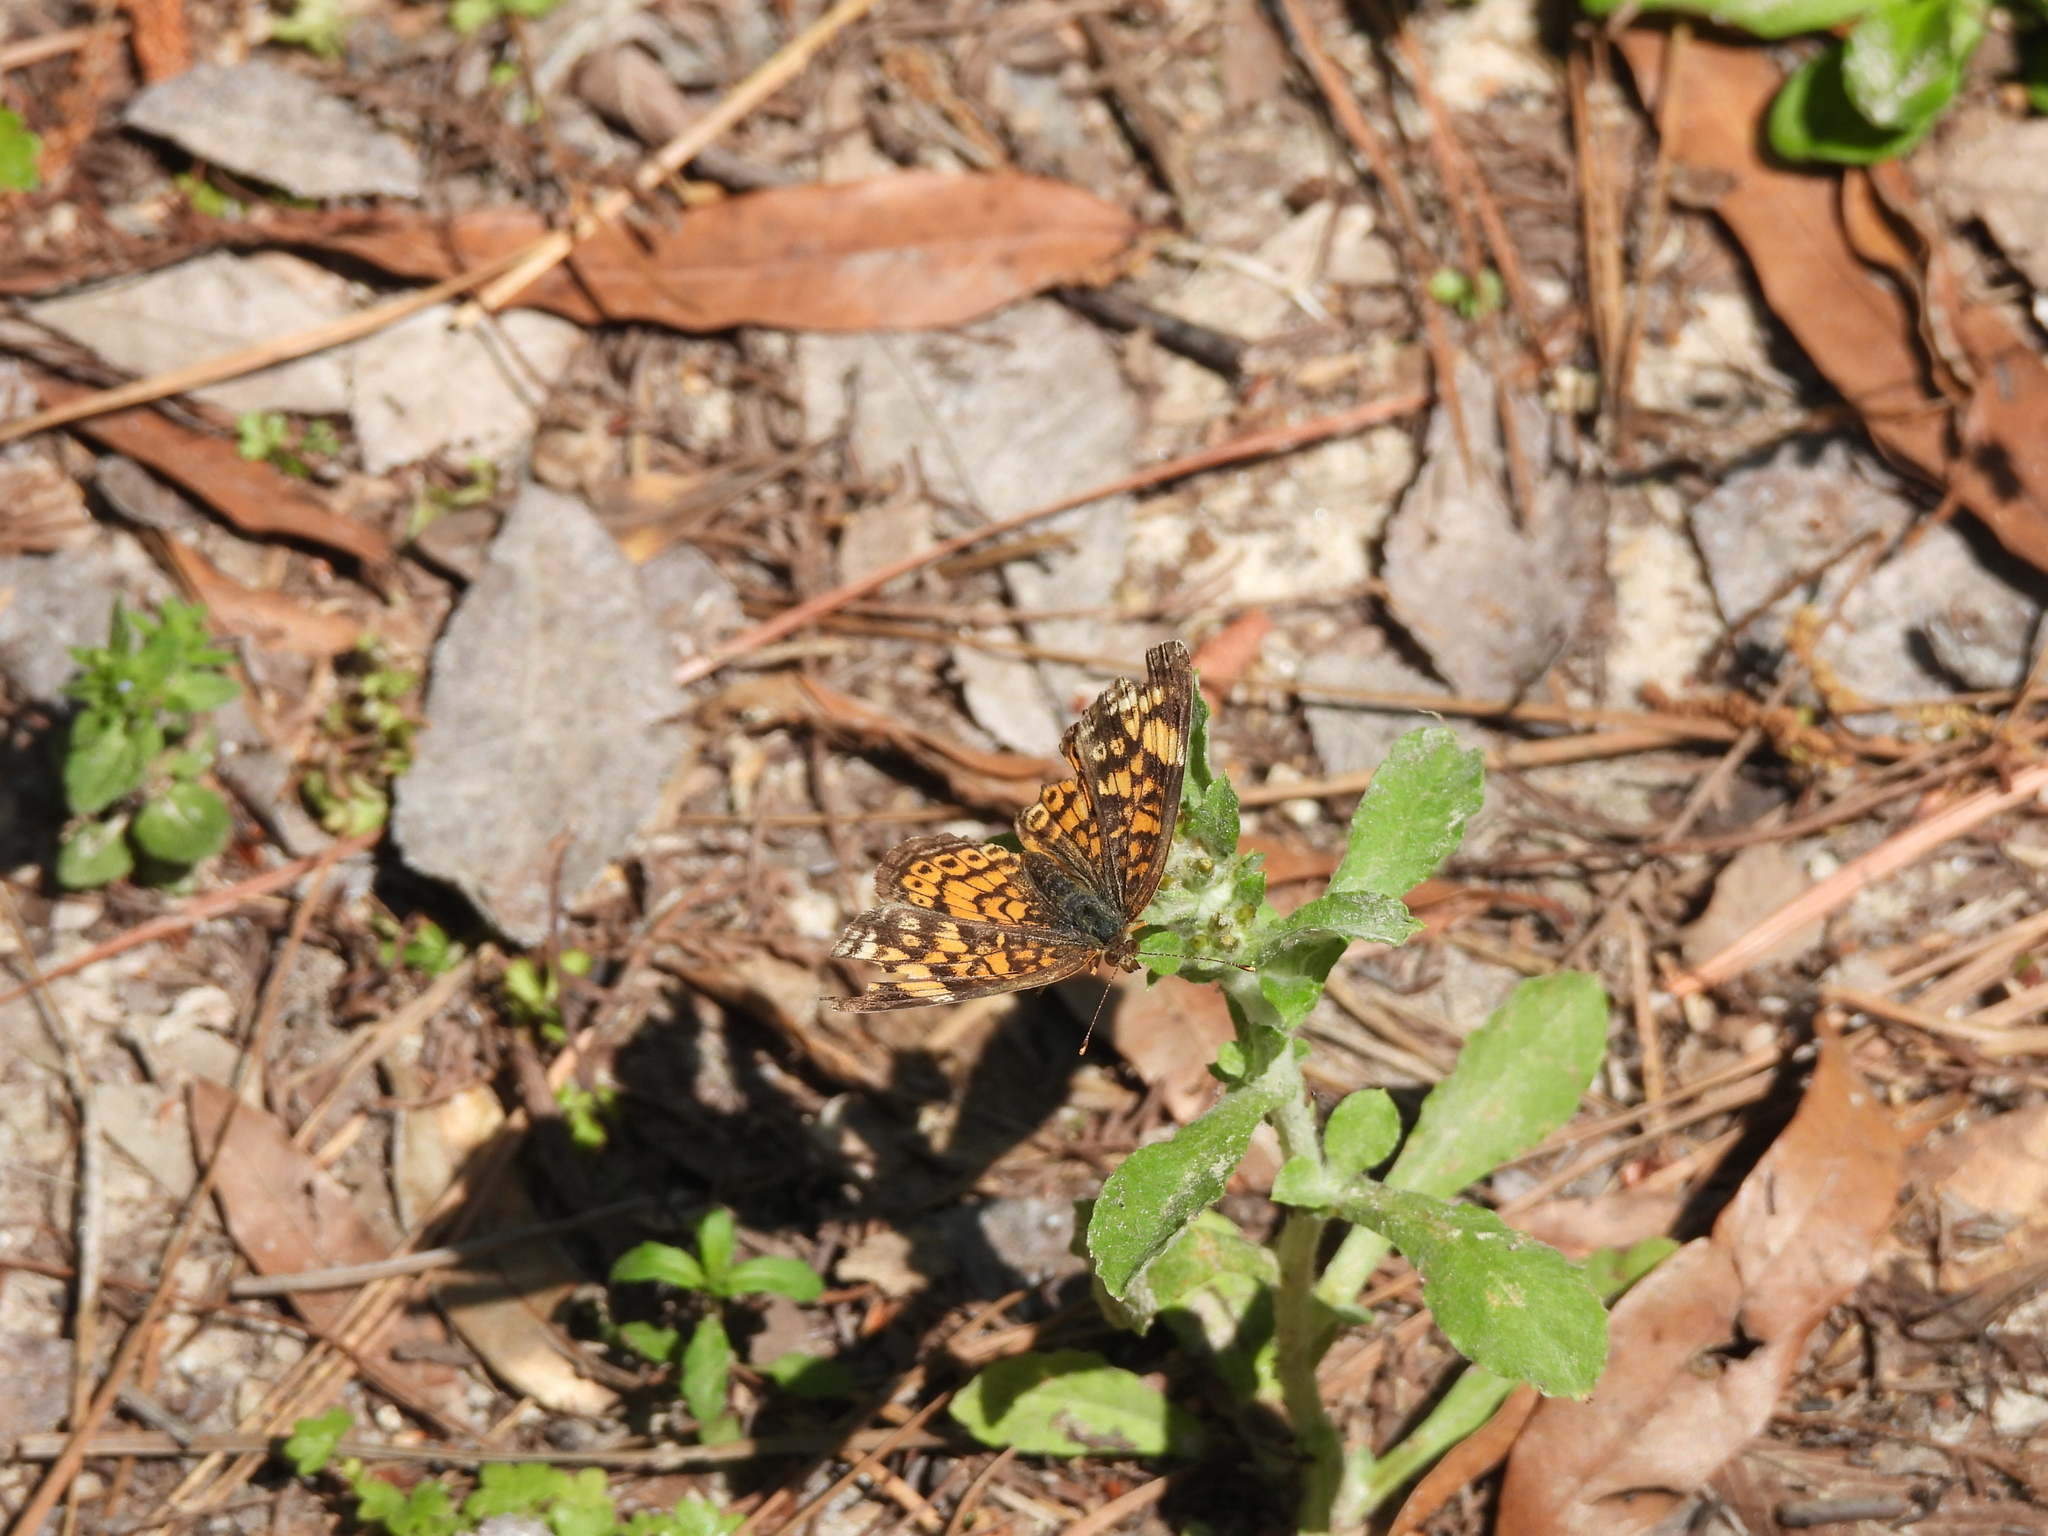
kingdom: Animalia
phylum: Arthropoda
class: Insecta
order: Lepidoptera
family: Nymphalidae
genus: Phyciodes
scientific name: Phyciodes tharos
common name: Pearl crescent
